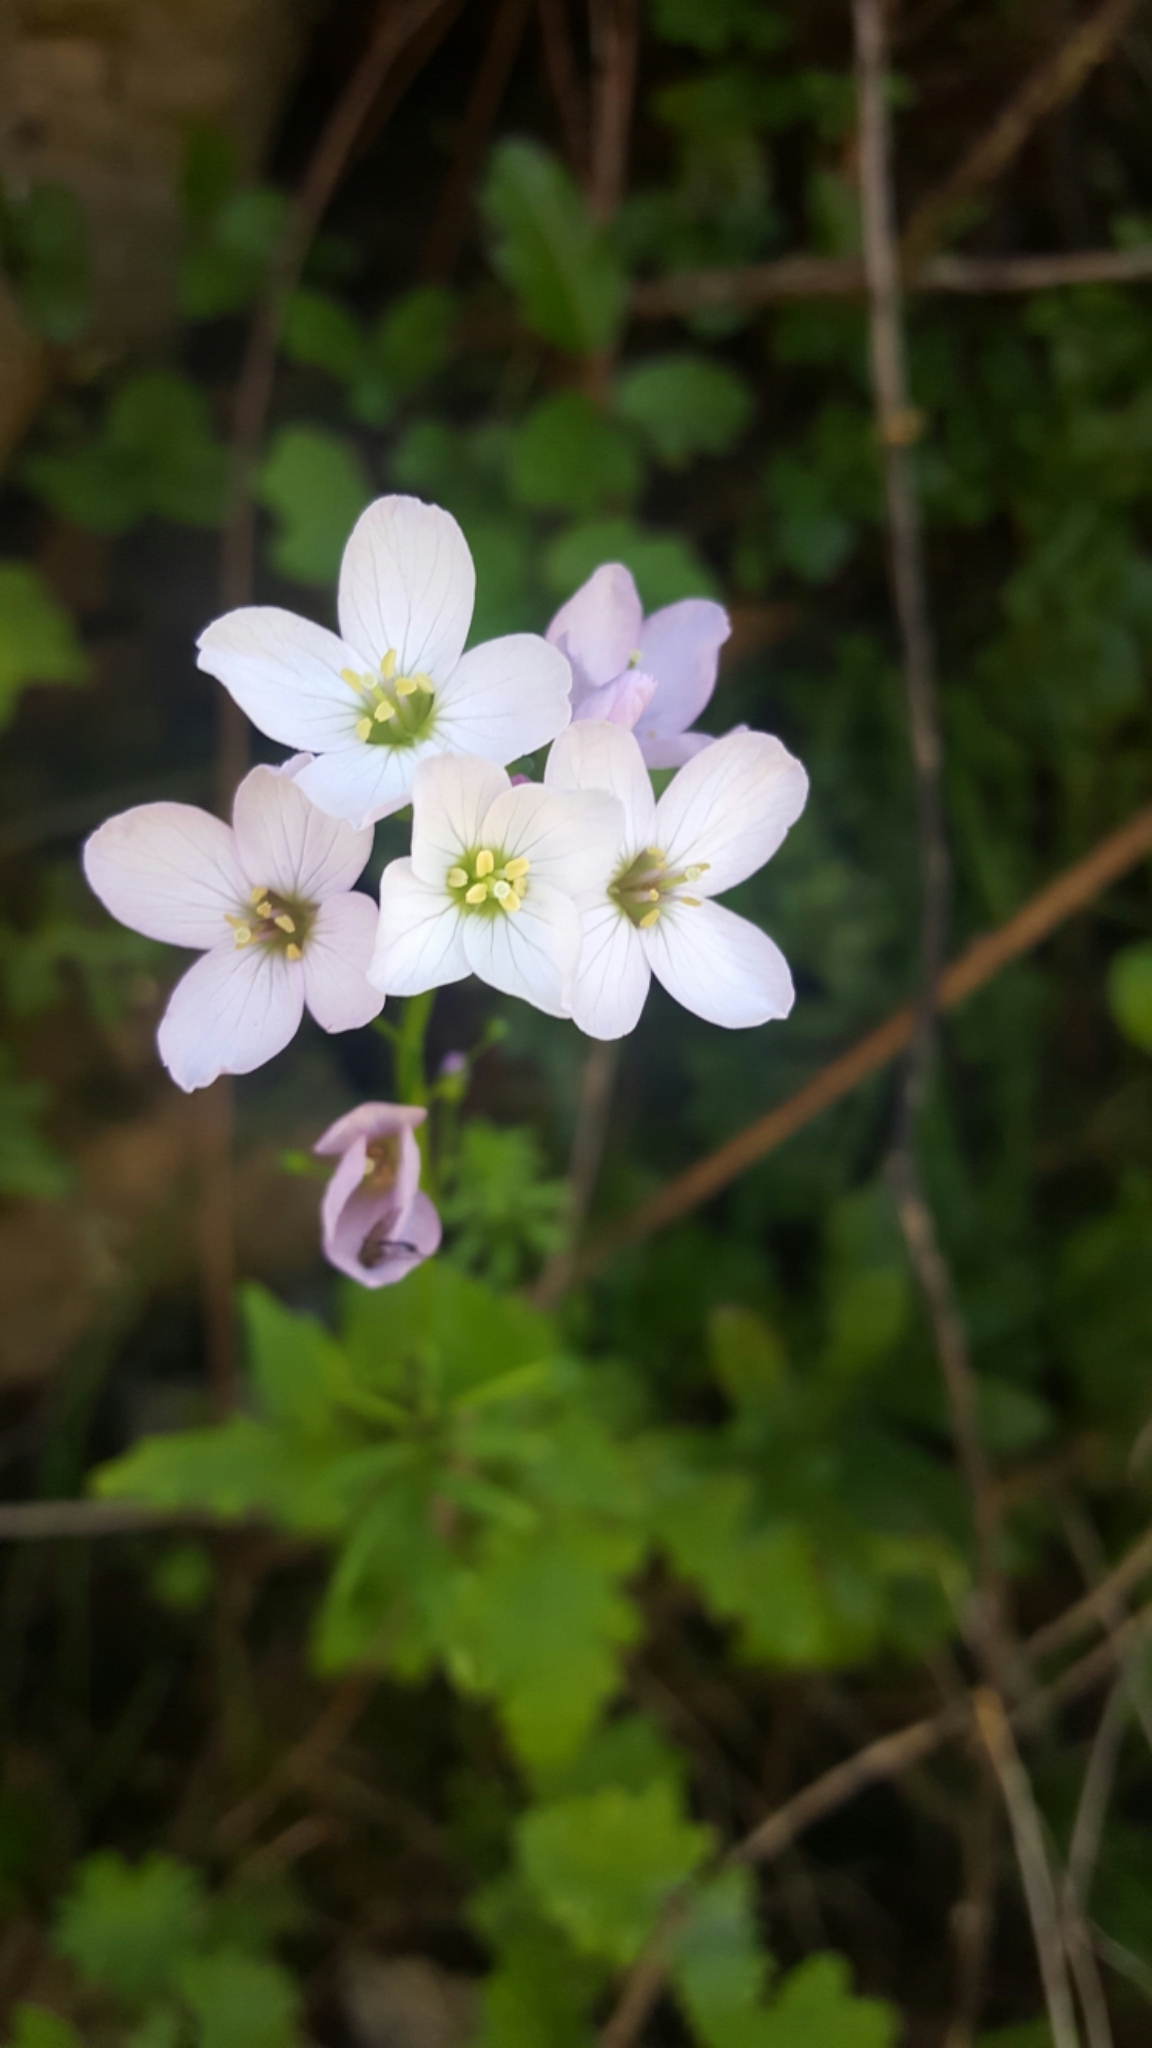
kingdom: Plantae
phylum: Tracheophyta
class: Magnoliopsida
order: Brassicales
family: Brassicaceae
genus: Cardamine
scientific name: Cardamine californica
